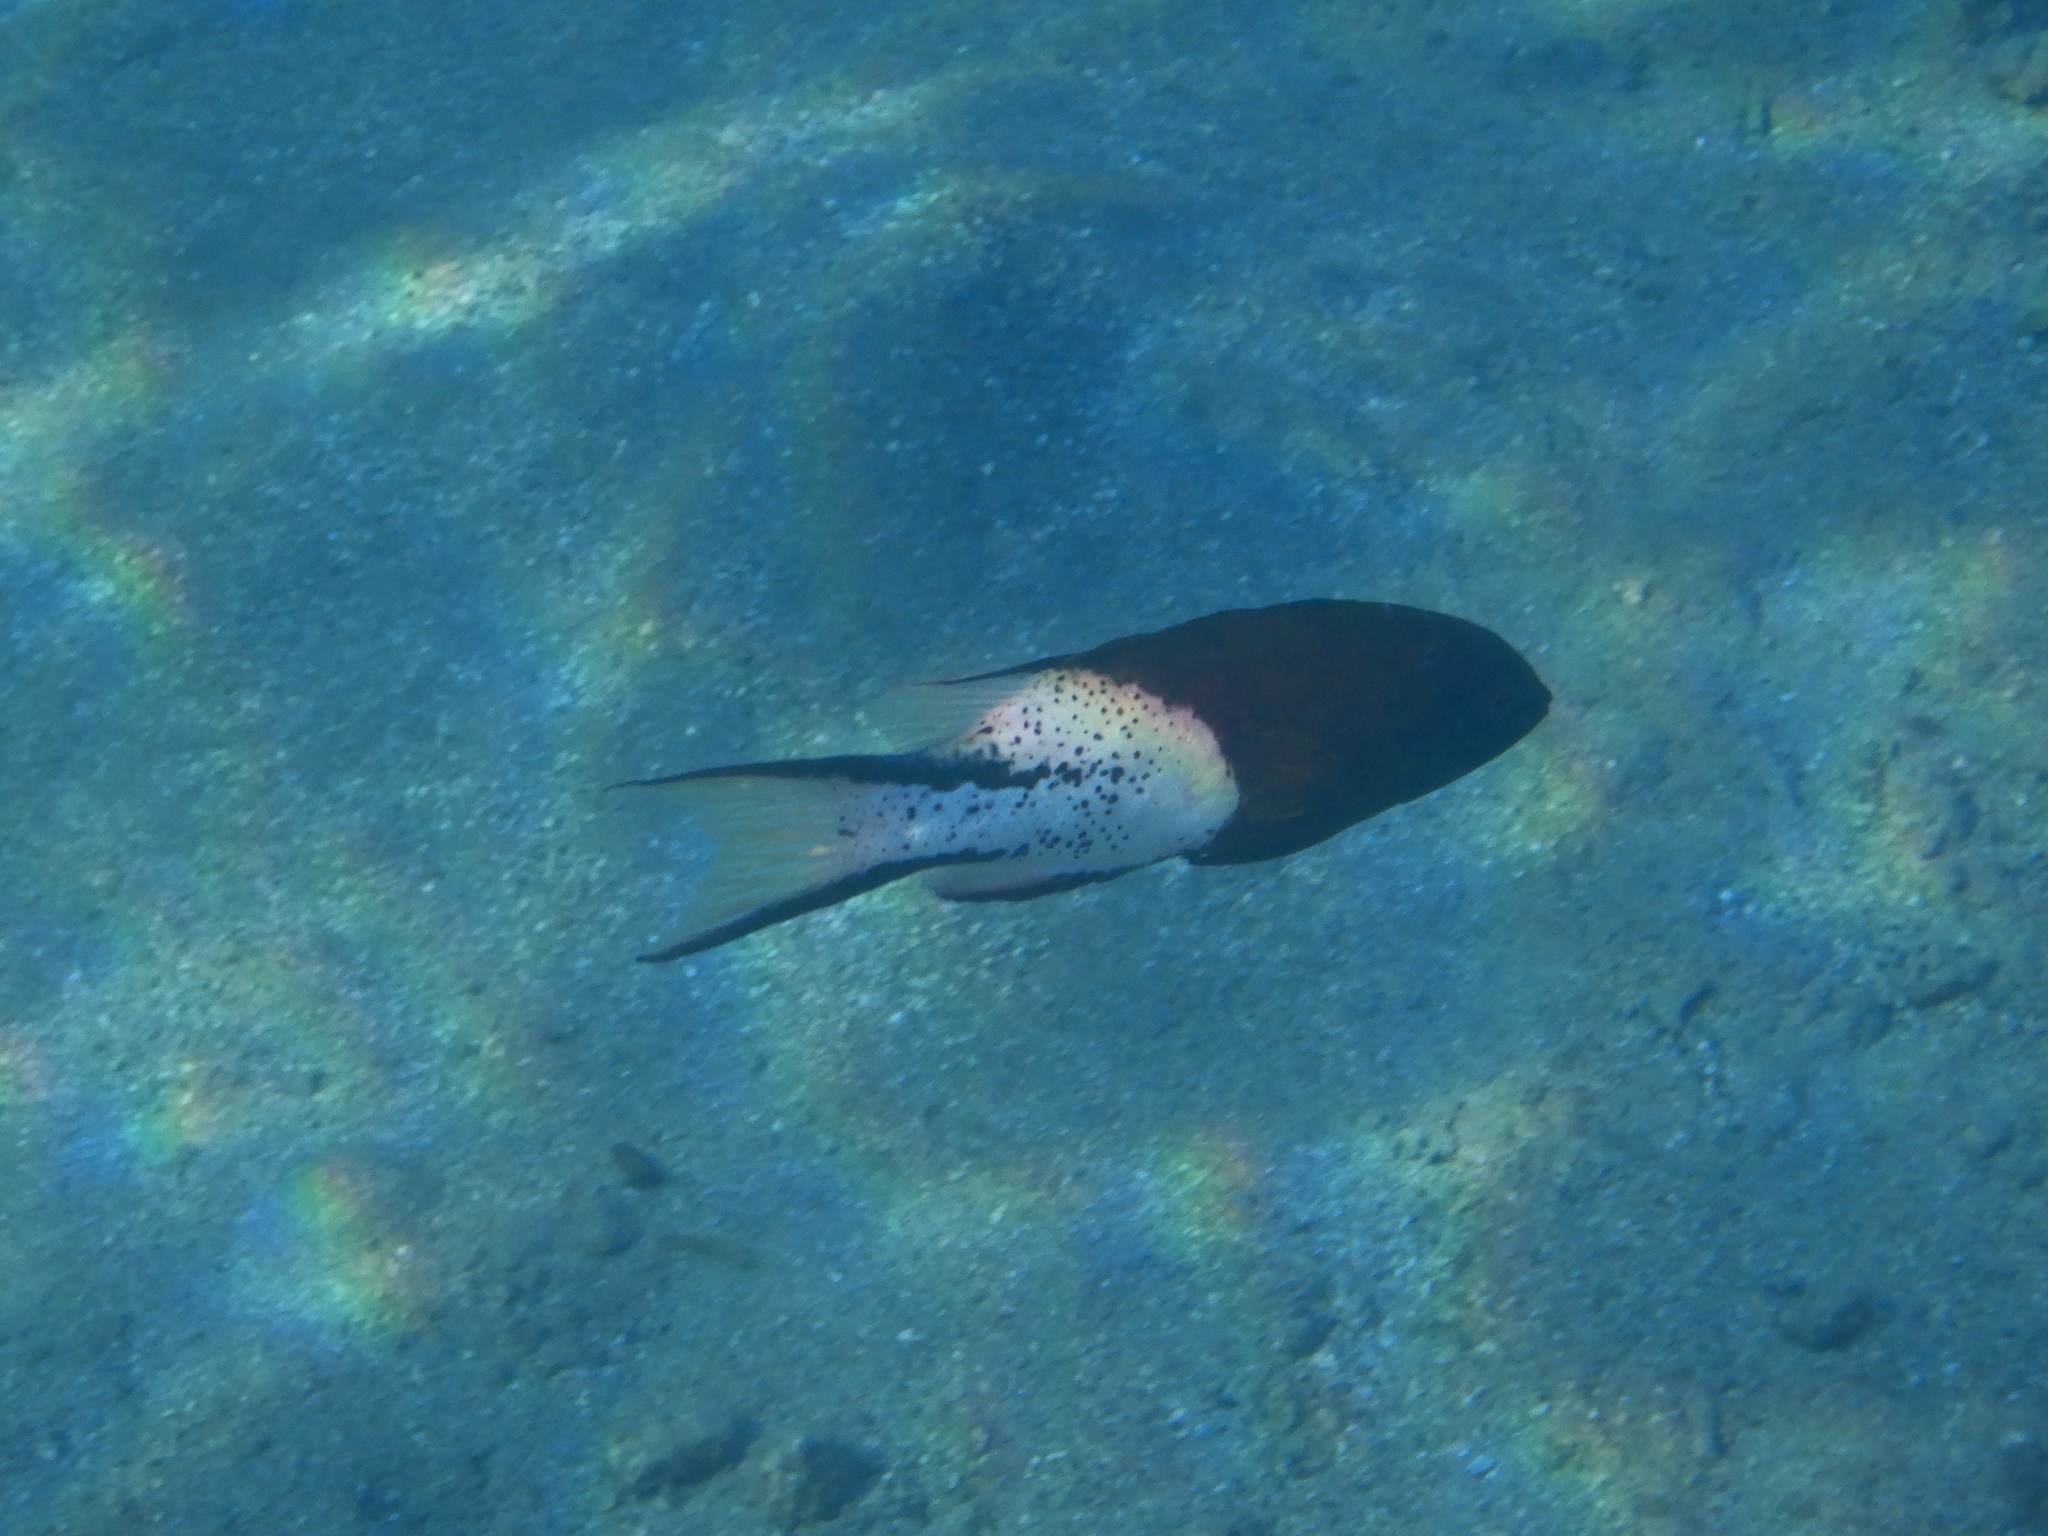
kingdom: Animalia
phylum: Chordata
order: Perciformes
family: Labridae
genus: Bodianus
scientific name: Bodianus anthioides
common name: Lyretail hogfish
